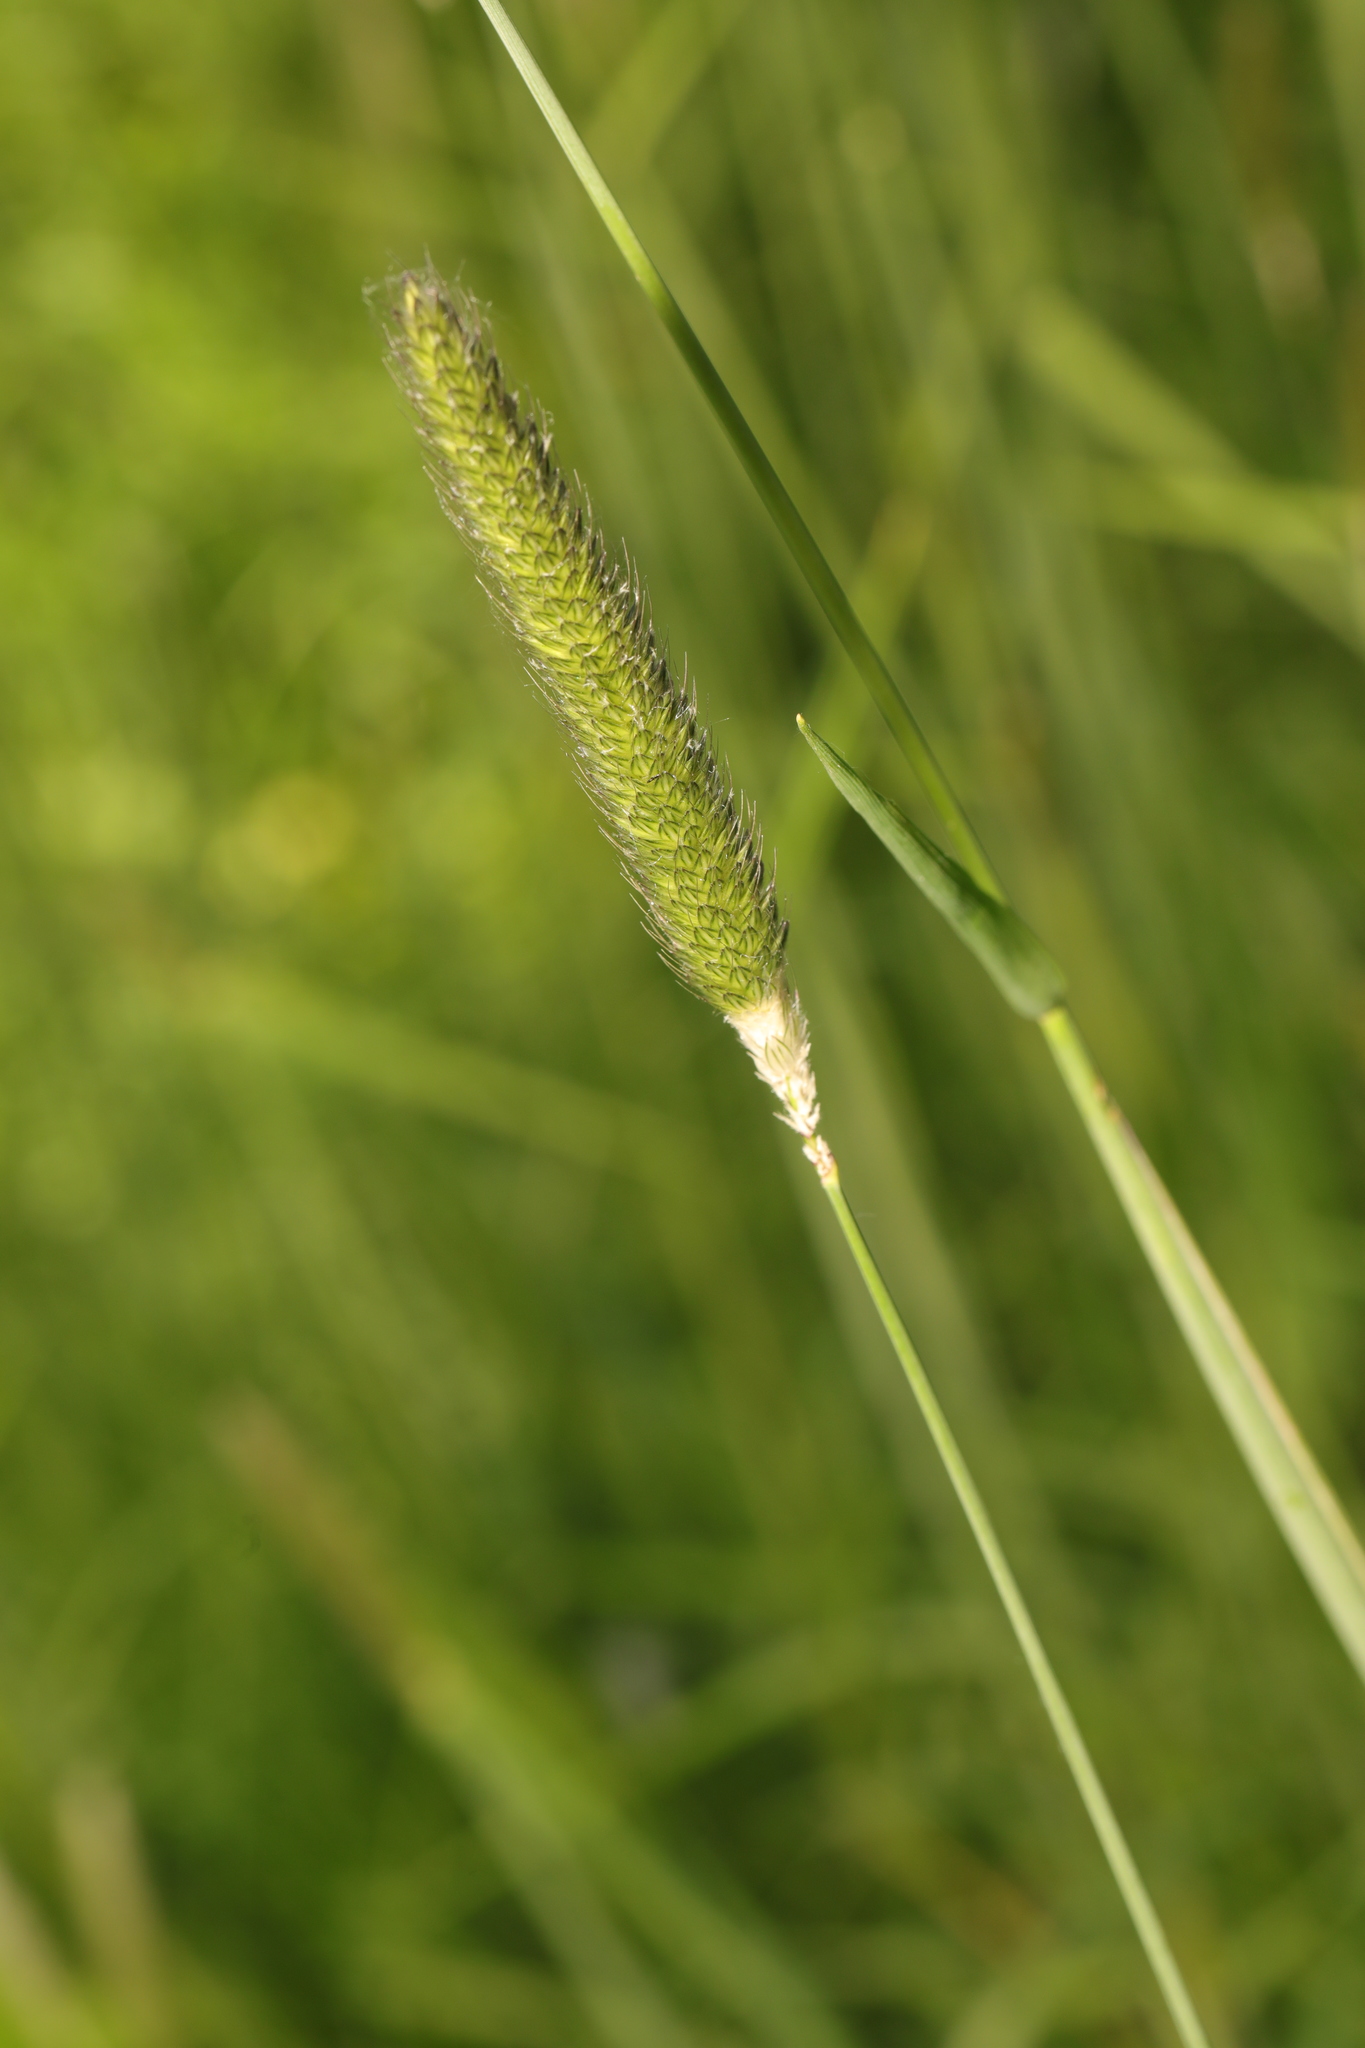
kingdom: Plantae
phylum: Tracheophyta
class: Liliopsida
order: Poales
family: Poaceae
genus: Alopecurus
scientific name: Alopecurus pratensis
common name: Meadow foxtail
